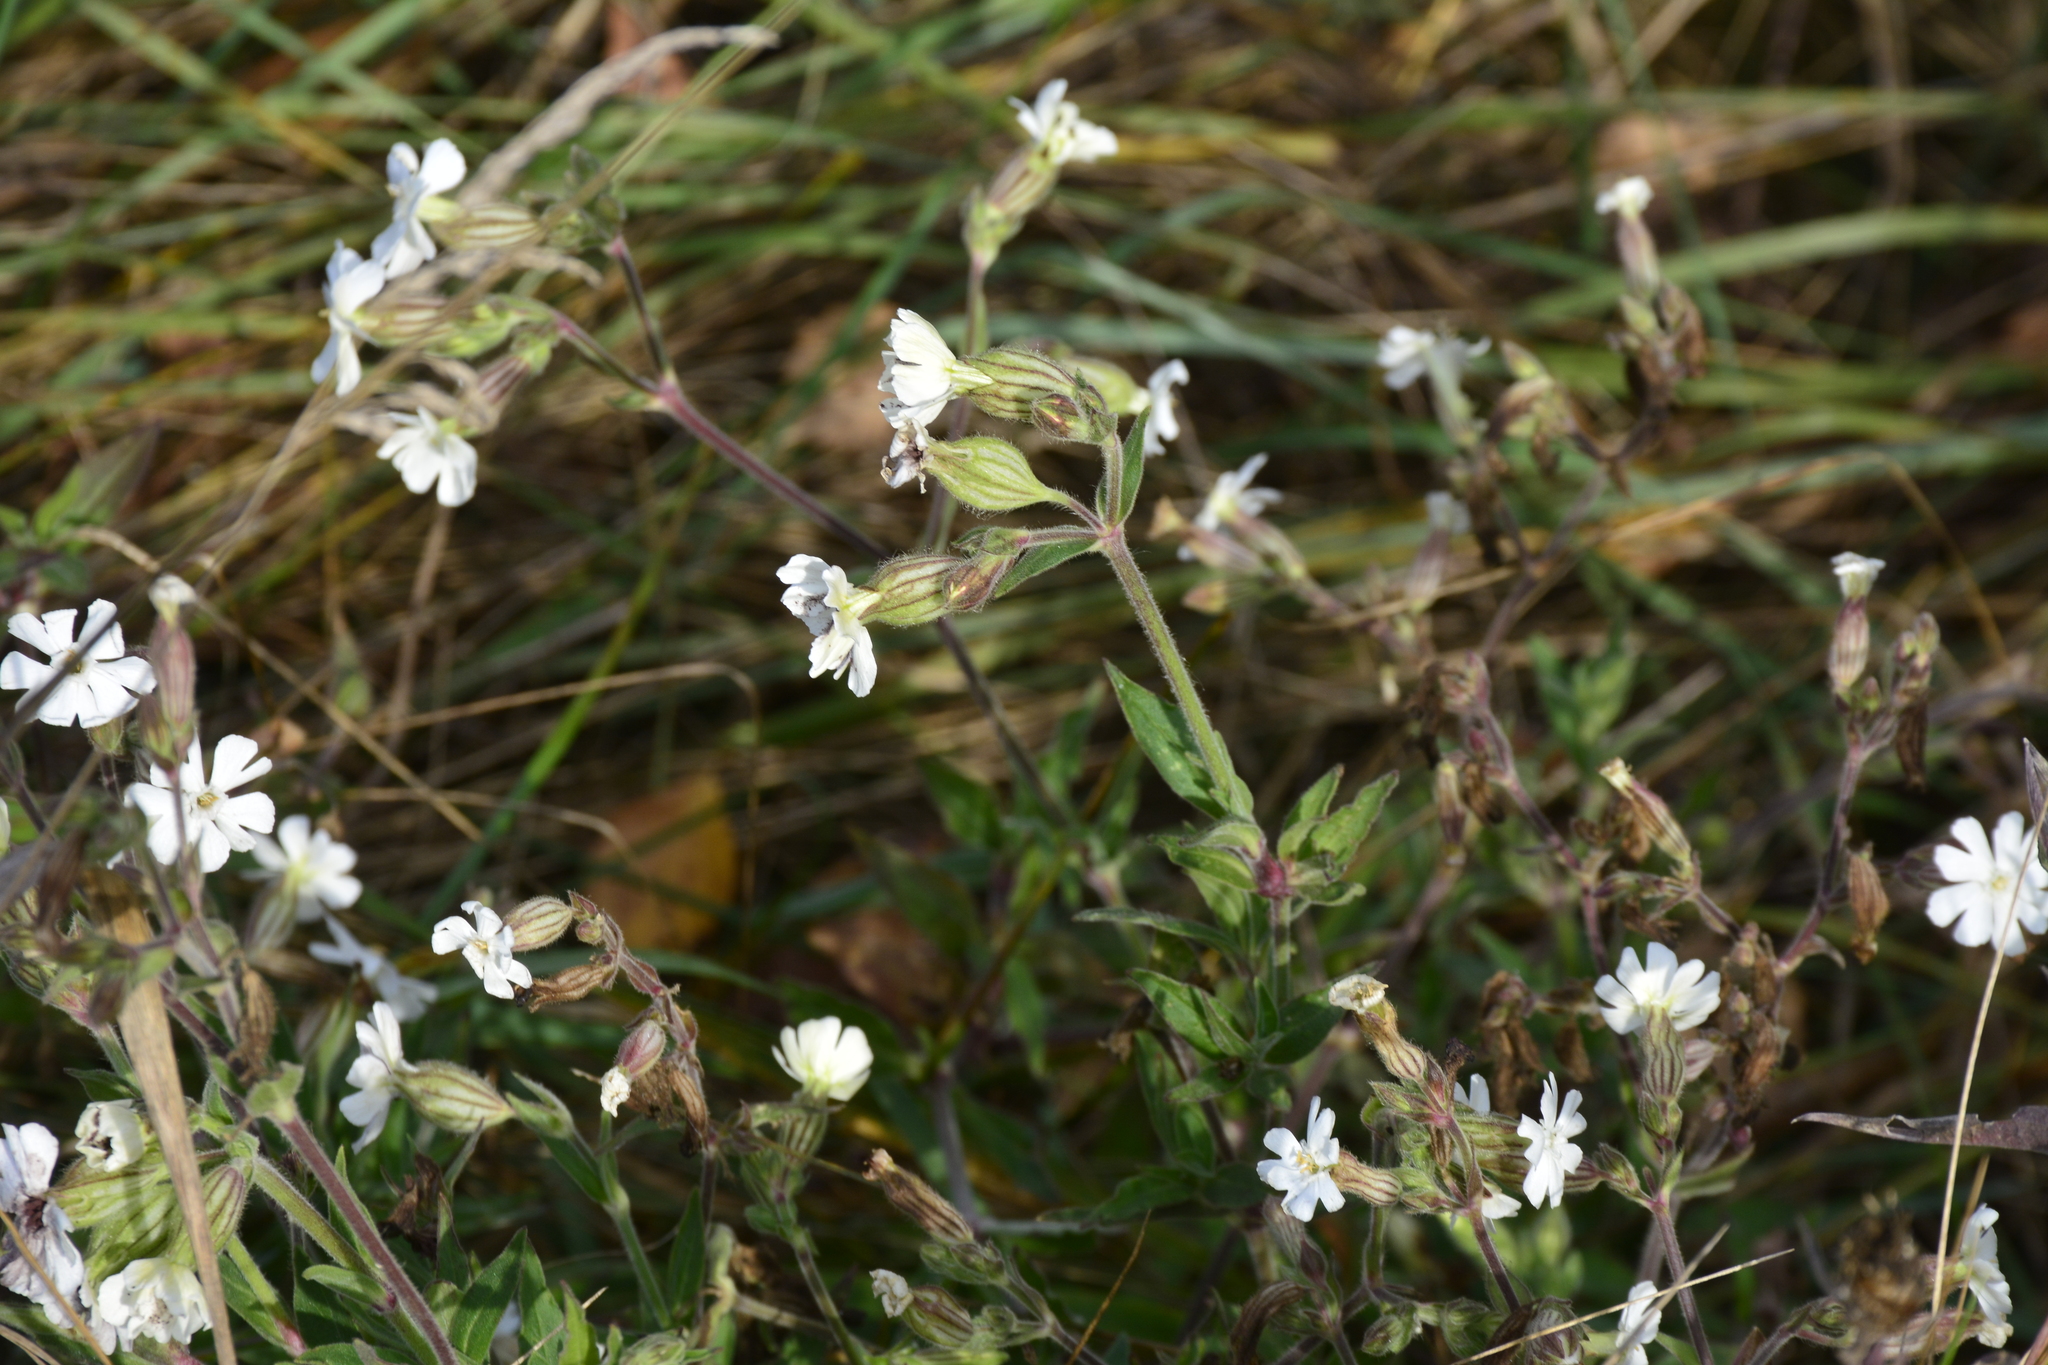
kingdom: Plantae
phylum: Tracheophyta
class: Magnoliopsida
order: Caryophyllales
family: Caryophyllaceae
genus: Silene
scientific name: Silene latifolia
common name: White campion
